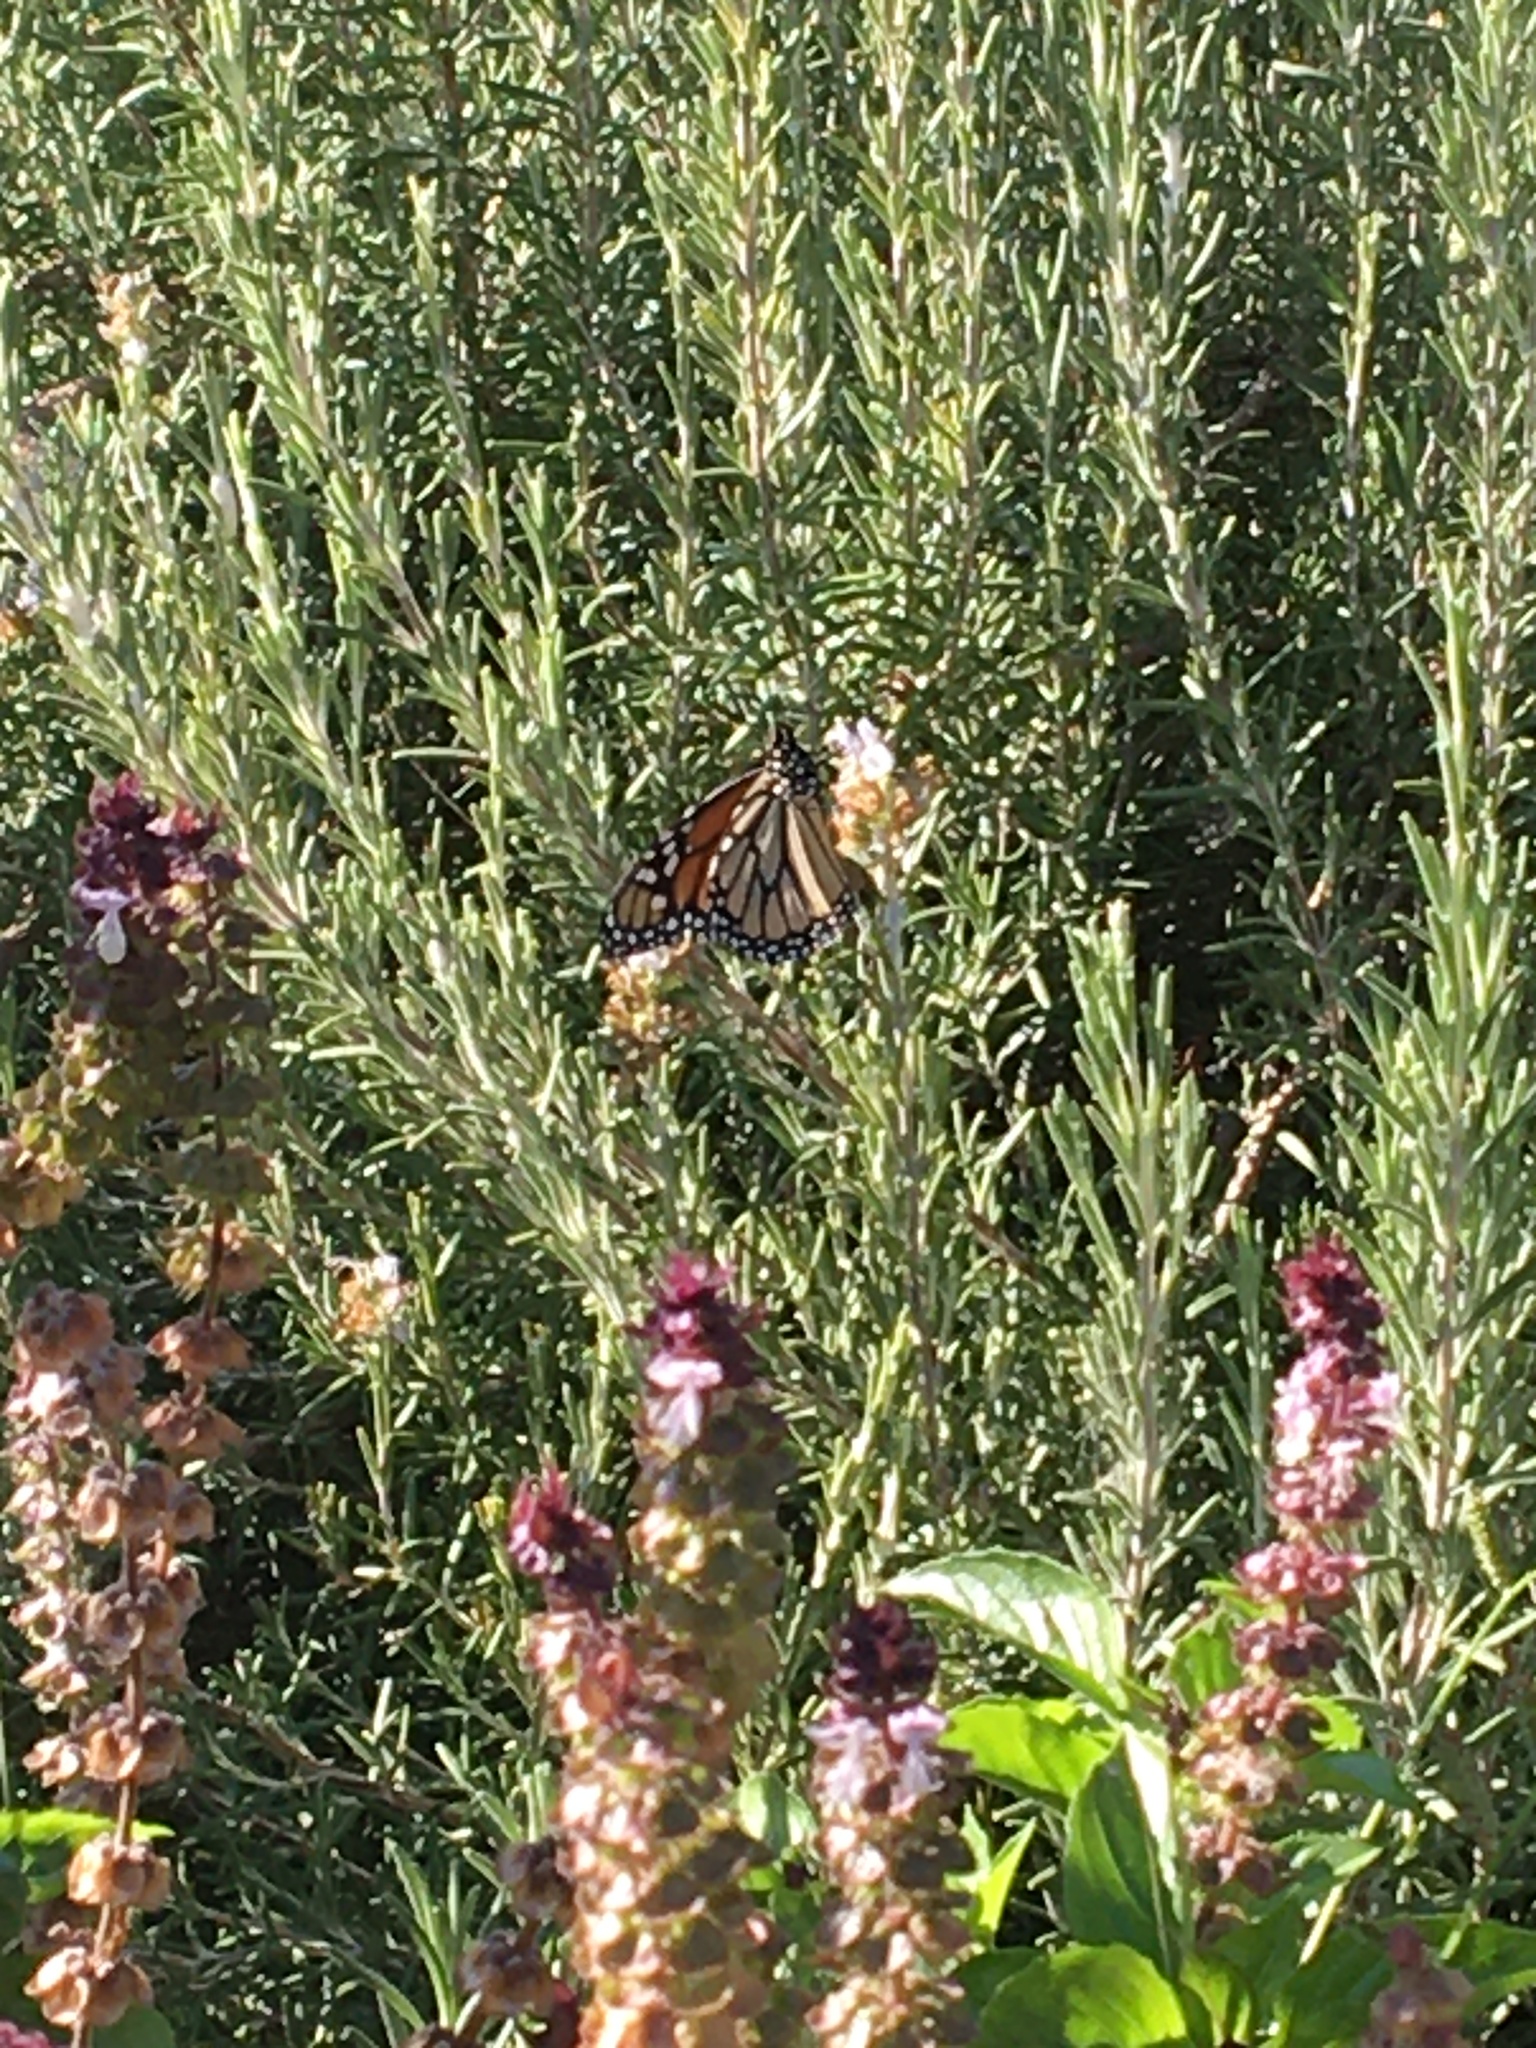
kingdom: Animalia
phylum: Arthropoda
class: Insecta
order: Lepidoptera
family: Nymphalidae
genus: Danaus
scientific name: Danaus plexippus
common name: Monarch
